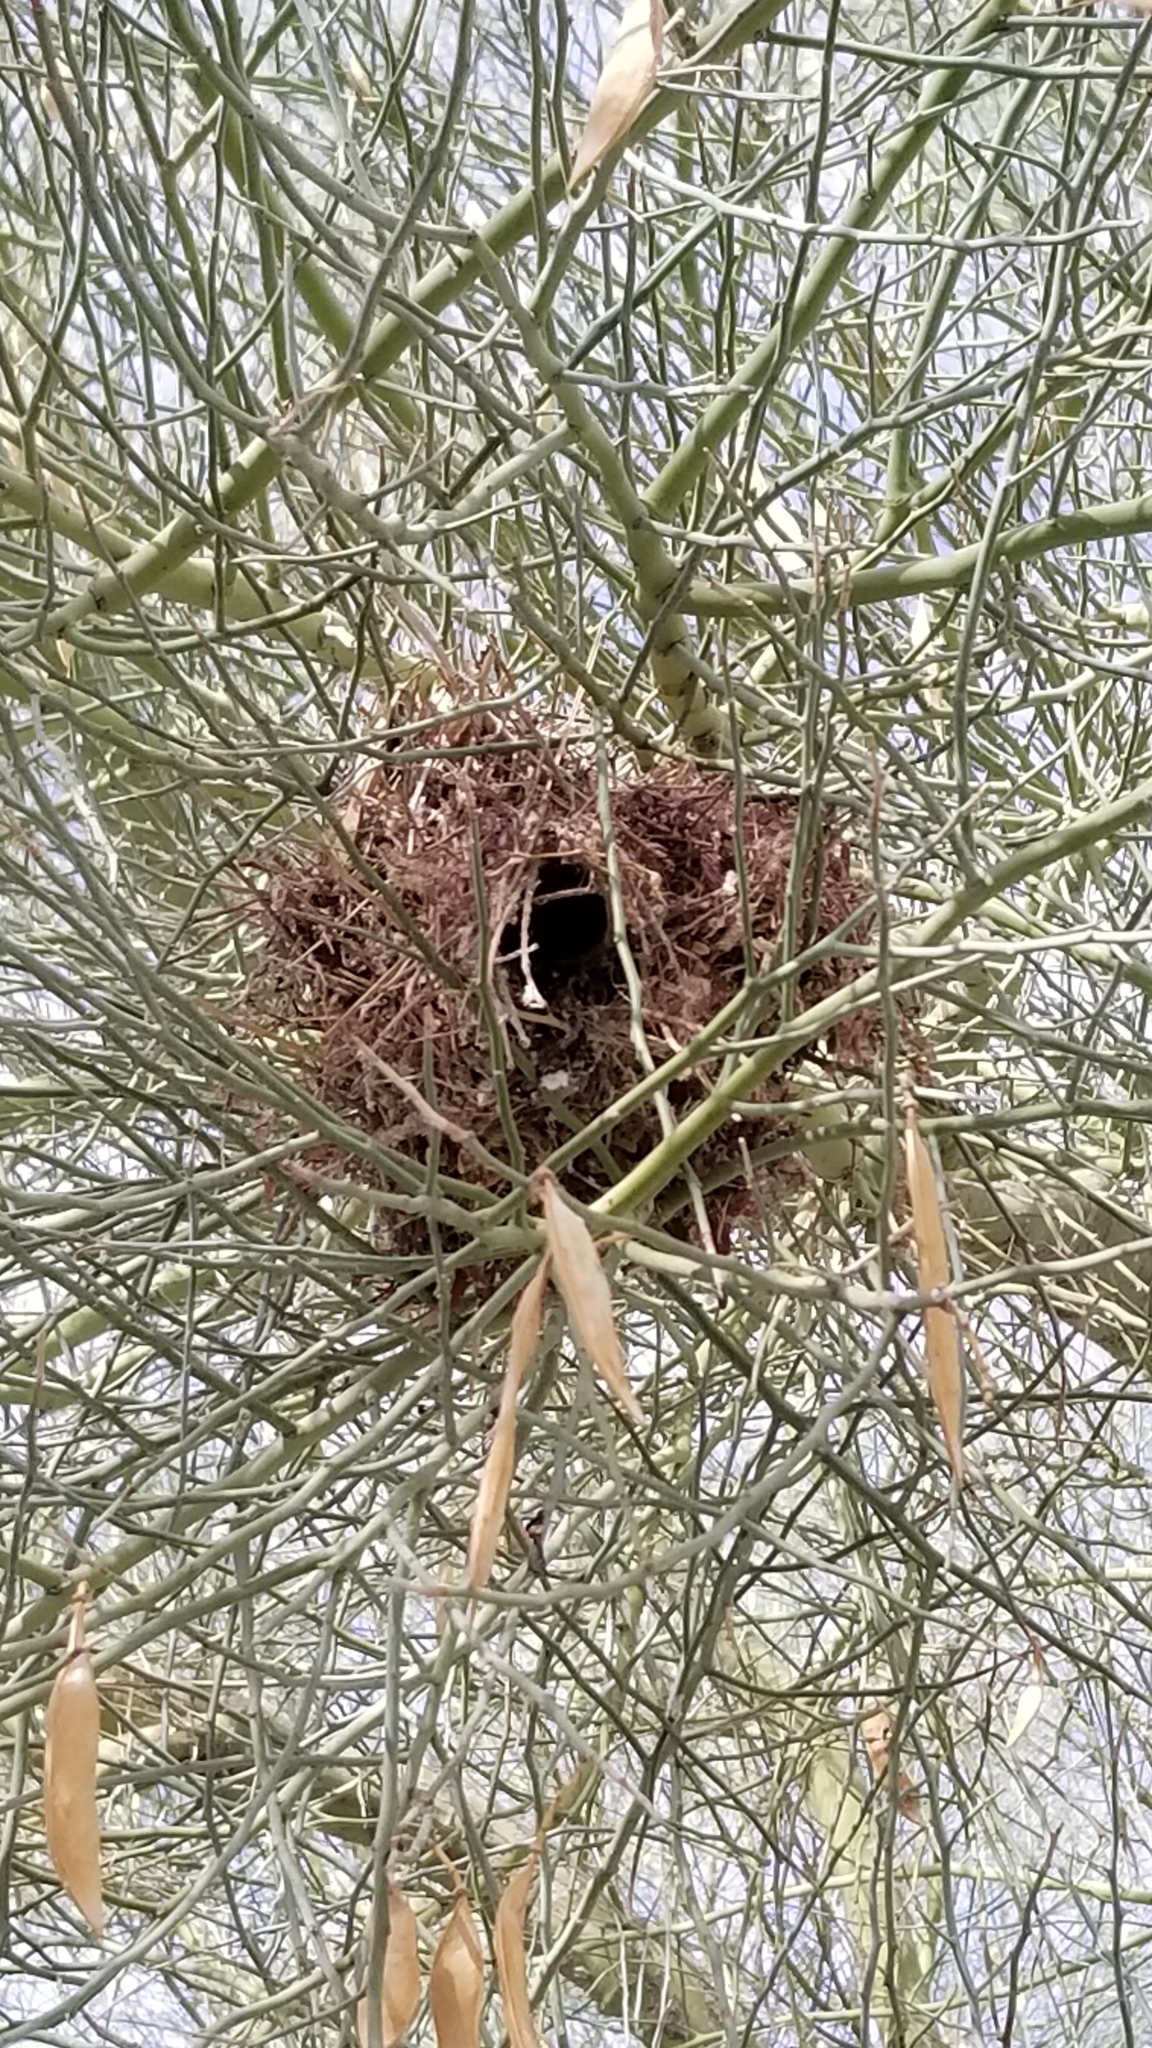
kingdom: Animalia
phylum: Chordata
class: Aves
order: Passeriformes
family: Remizidae
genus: Auriparus
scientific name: Auriparus flaviceps
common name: Verdin
